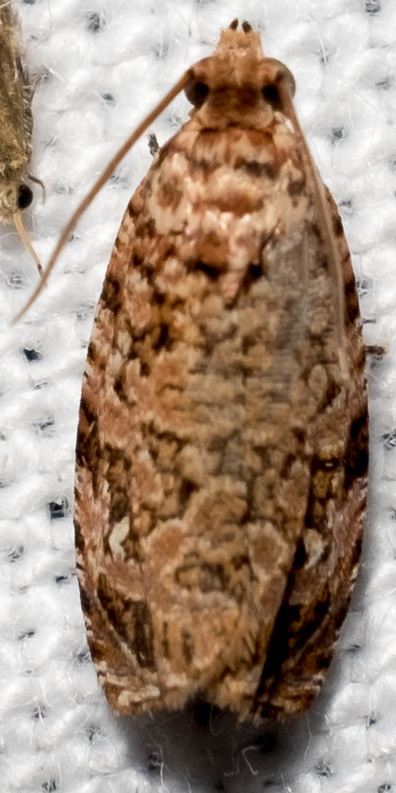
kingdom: Animalia
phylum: Arthropoda
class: Insecta
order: Lepidoptera
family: Tortricidae
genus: Phaecasiophora
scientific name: Phaecasiophora niveiguttana
